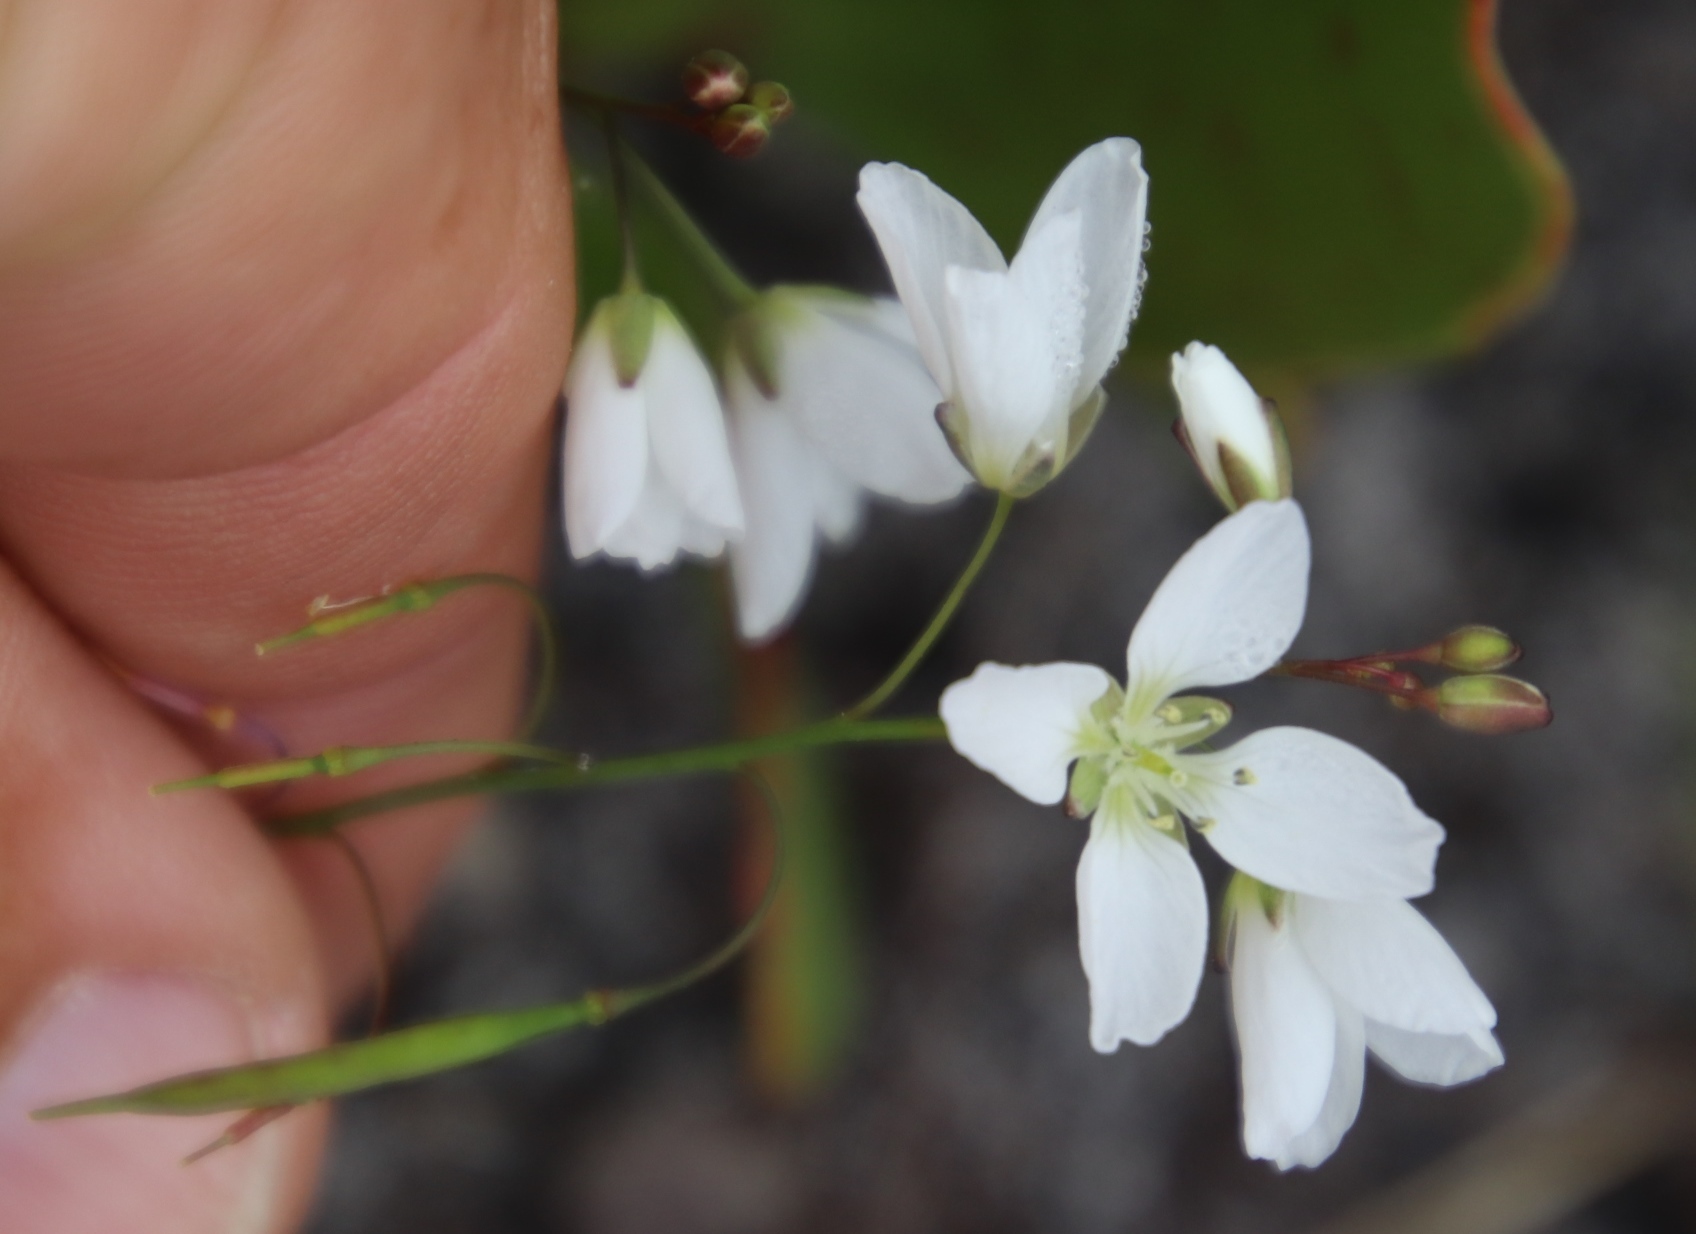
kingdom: Plantae
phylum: Tracheophyta
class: Magnoliopsida
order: Brassicales
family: Brassicaceae
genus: Heliophila
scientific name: Heliophila meyeri
